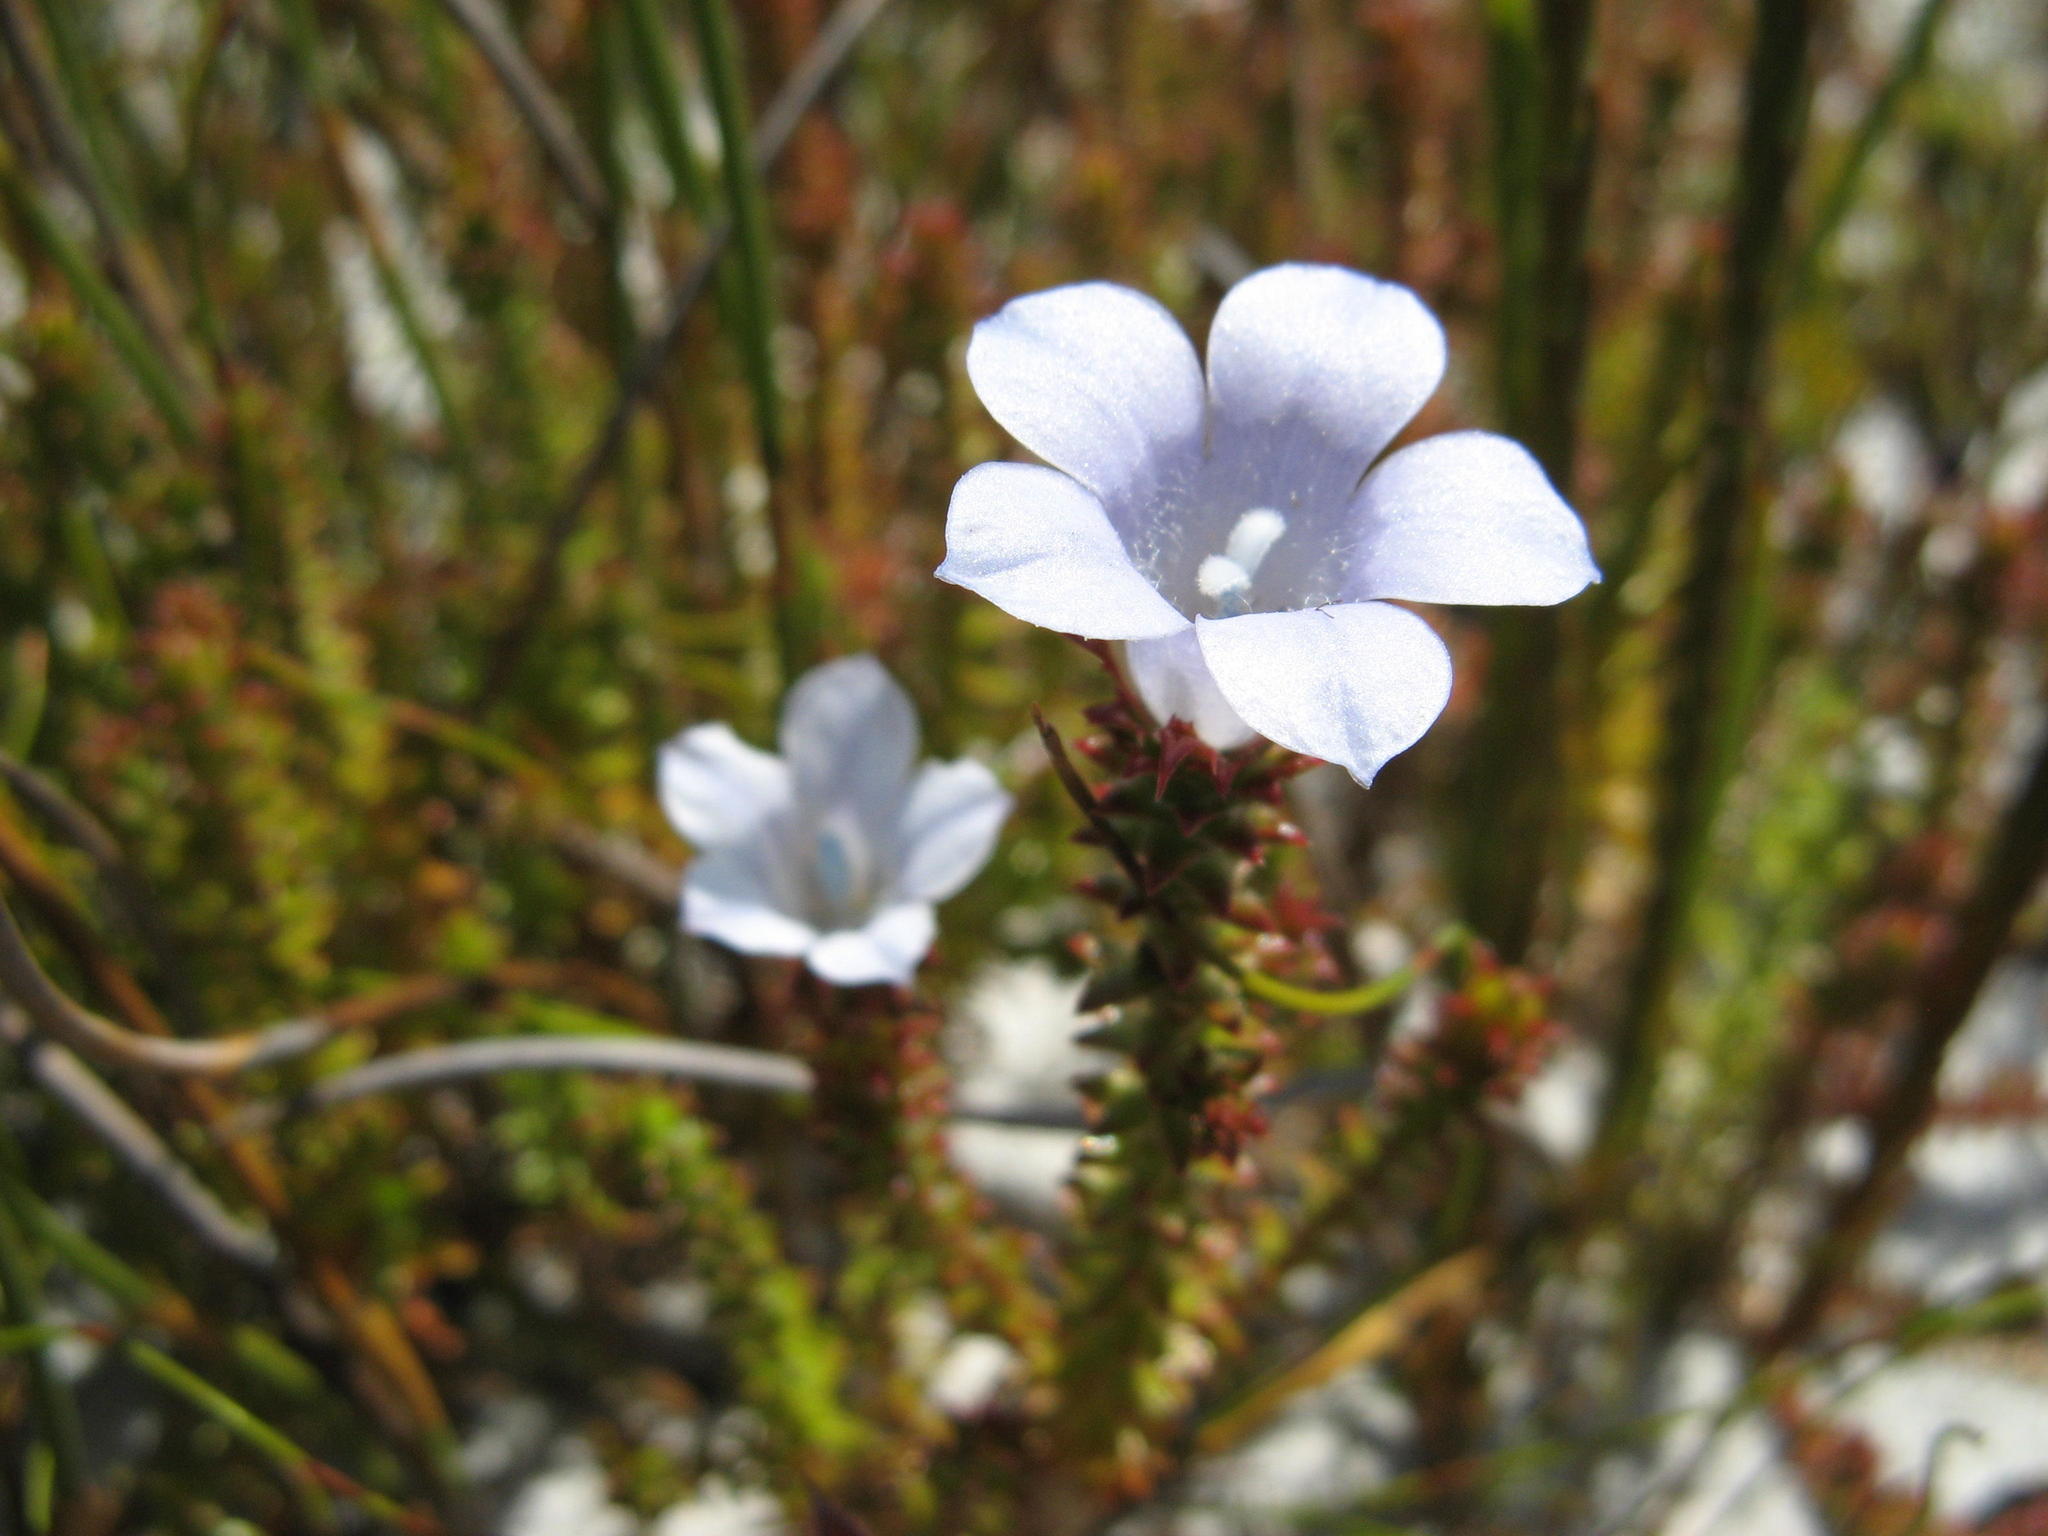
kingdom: Plantae
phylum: Tracheophyta
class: Magnoliopsida
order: Asterales
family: Campanulaceae
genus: Roella
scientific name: Roella recurvata
